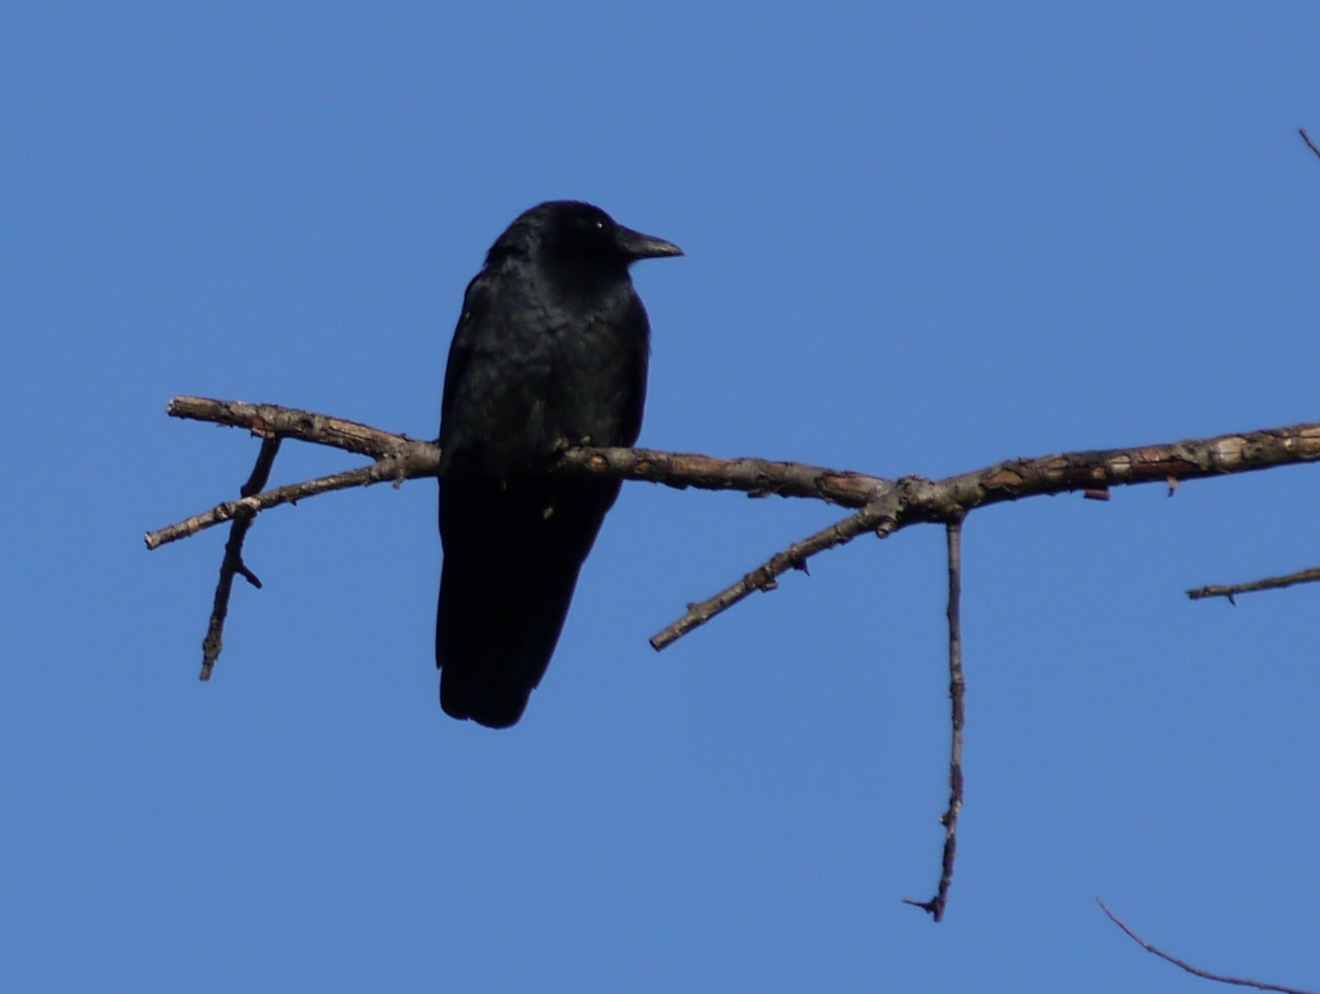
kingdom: Animalia
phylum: Chordata
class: Aves
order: Passeriformes
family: Corvidae
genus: Corvus
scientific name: Corvus
